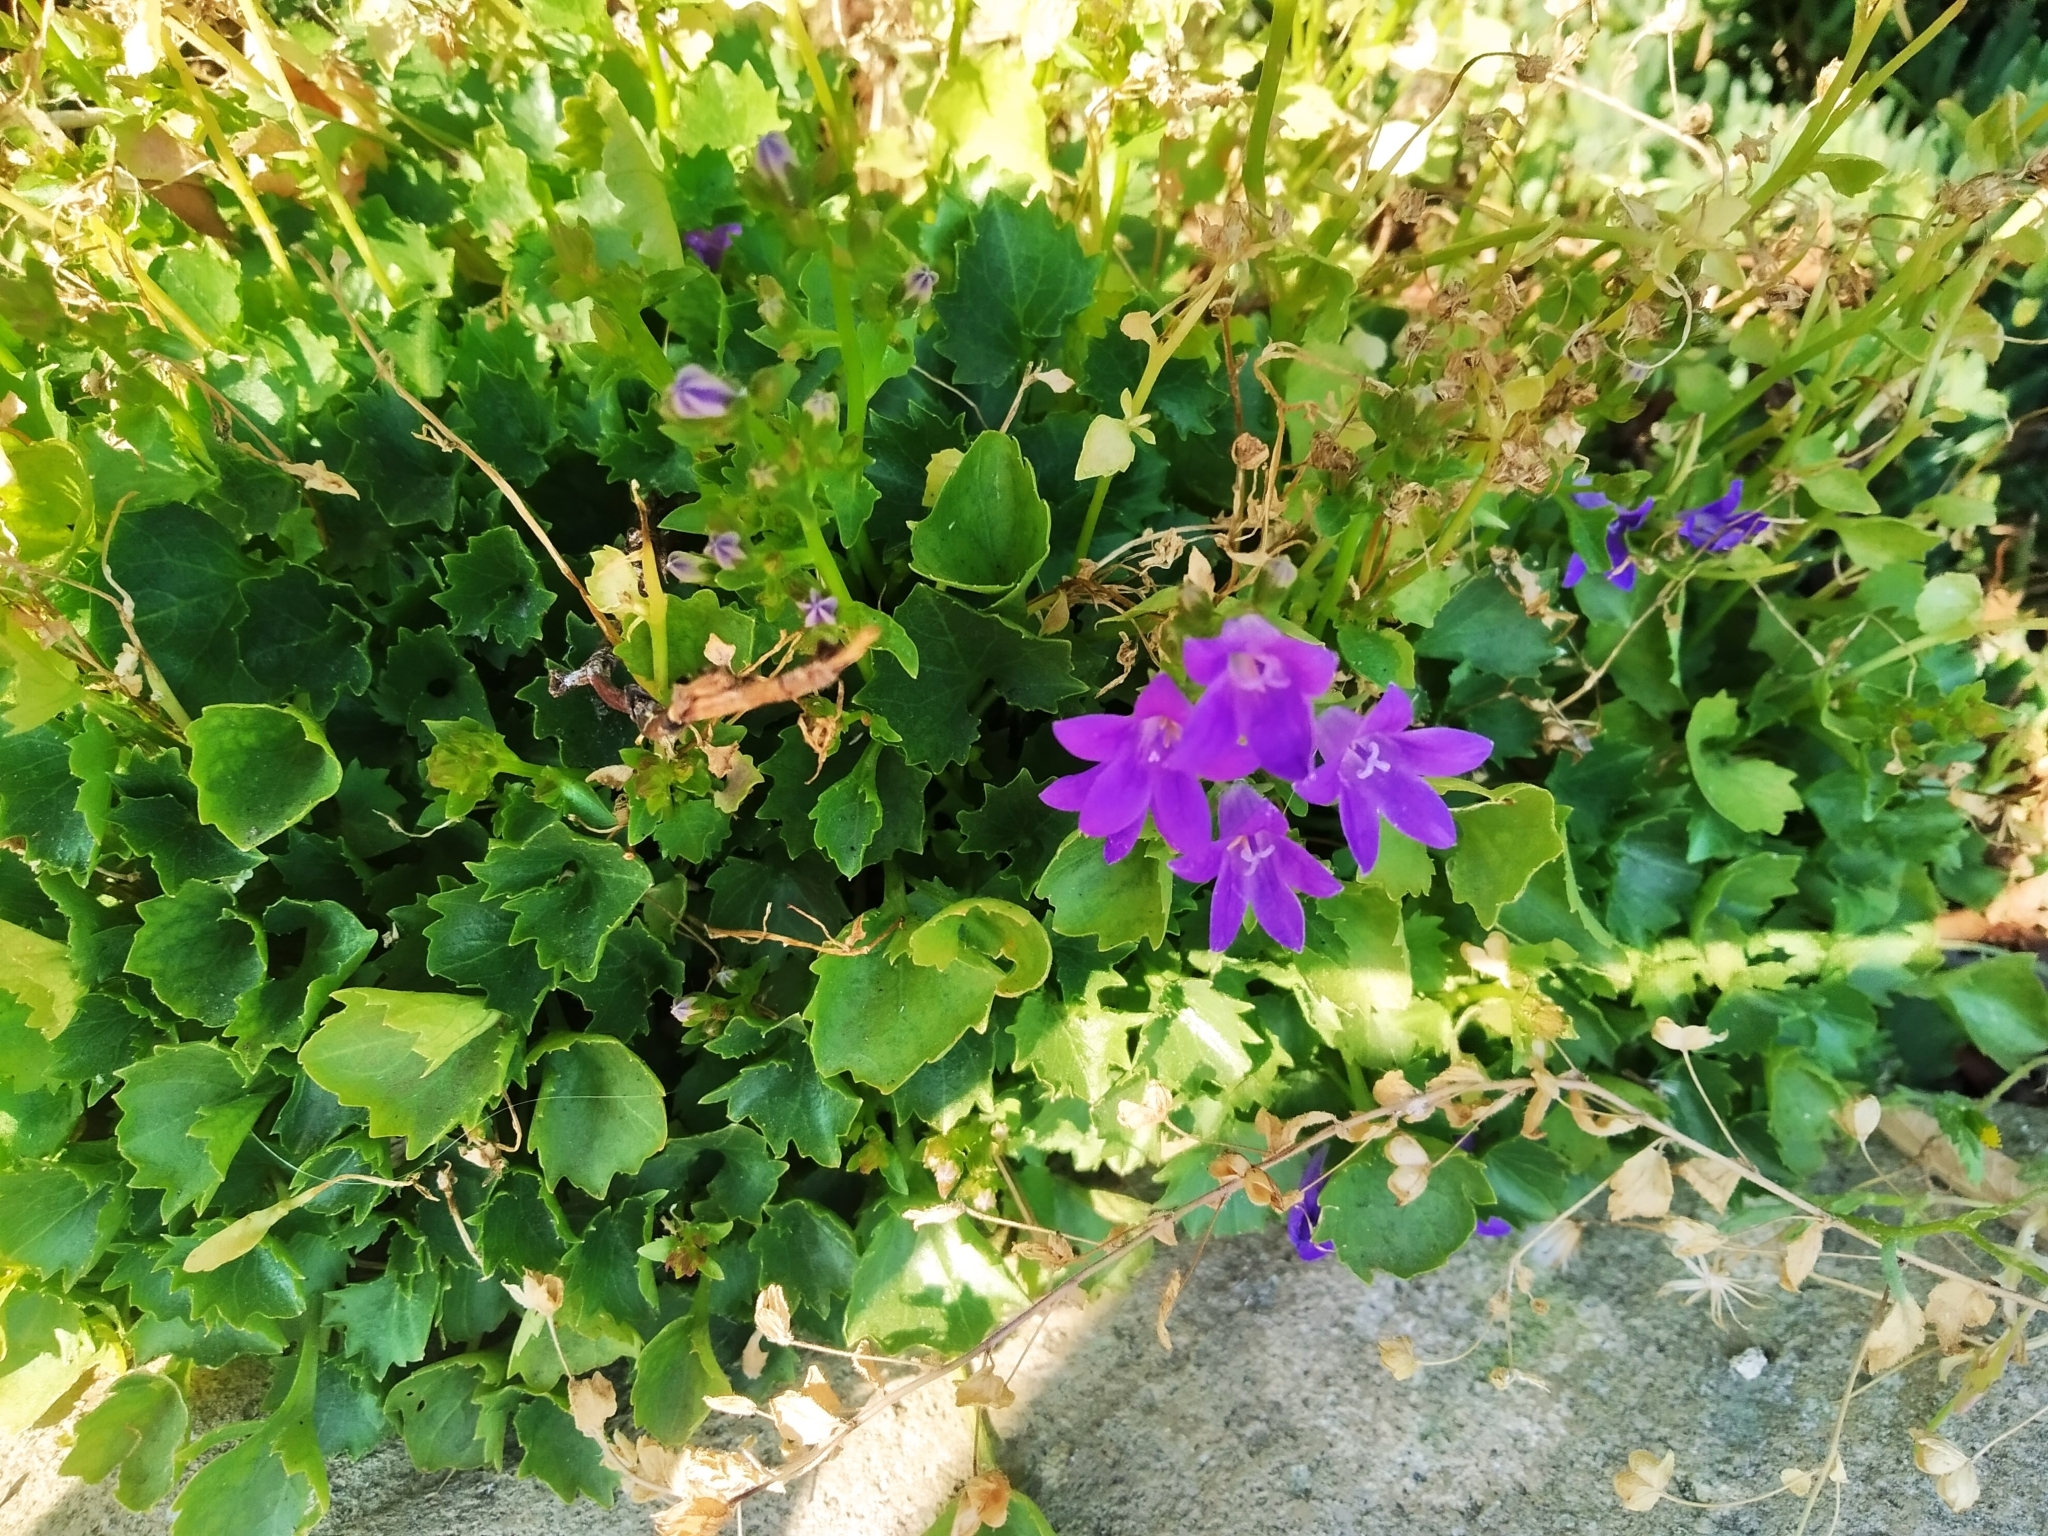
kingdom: Plantae
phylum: Tracheophyta
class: Magnoliopsida
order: Asterales
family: Campanulaceae
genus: Campanula
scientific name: Campanula poscharskyana
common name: Trailing bellflower
